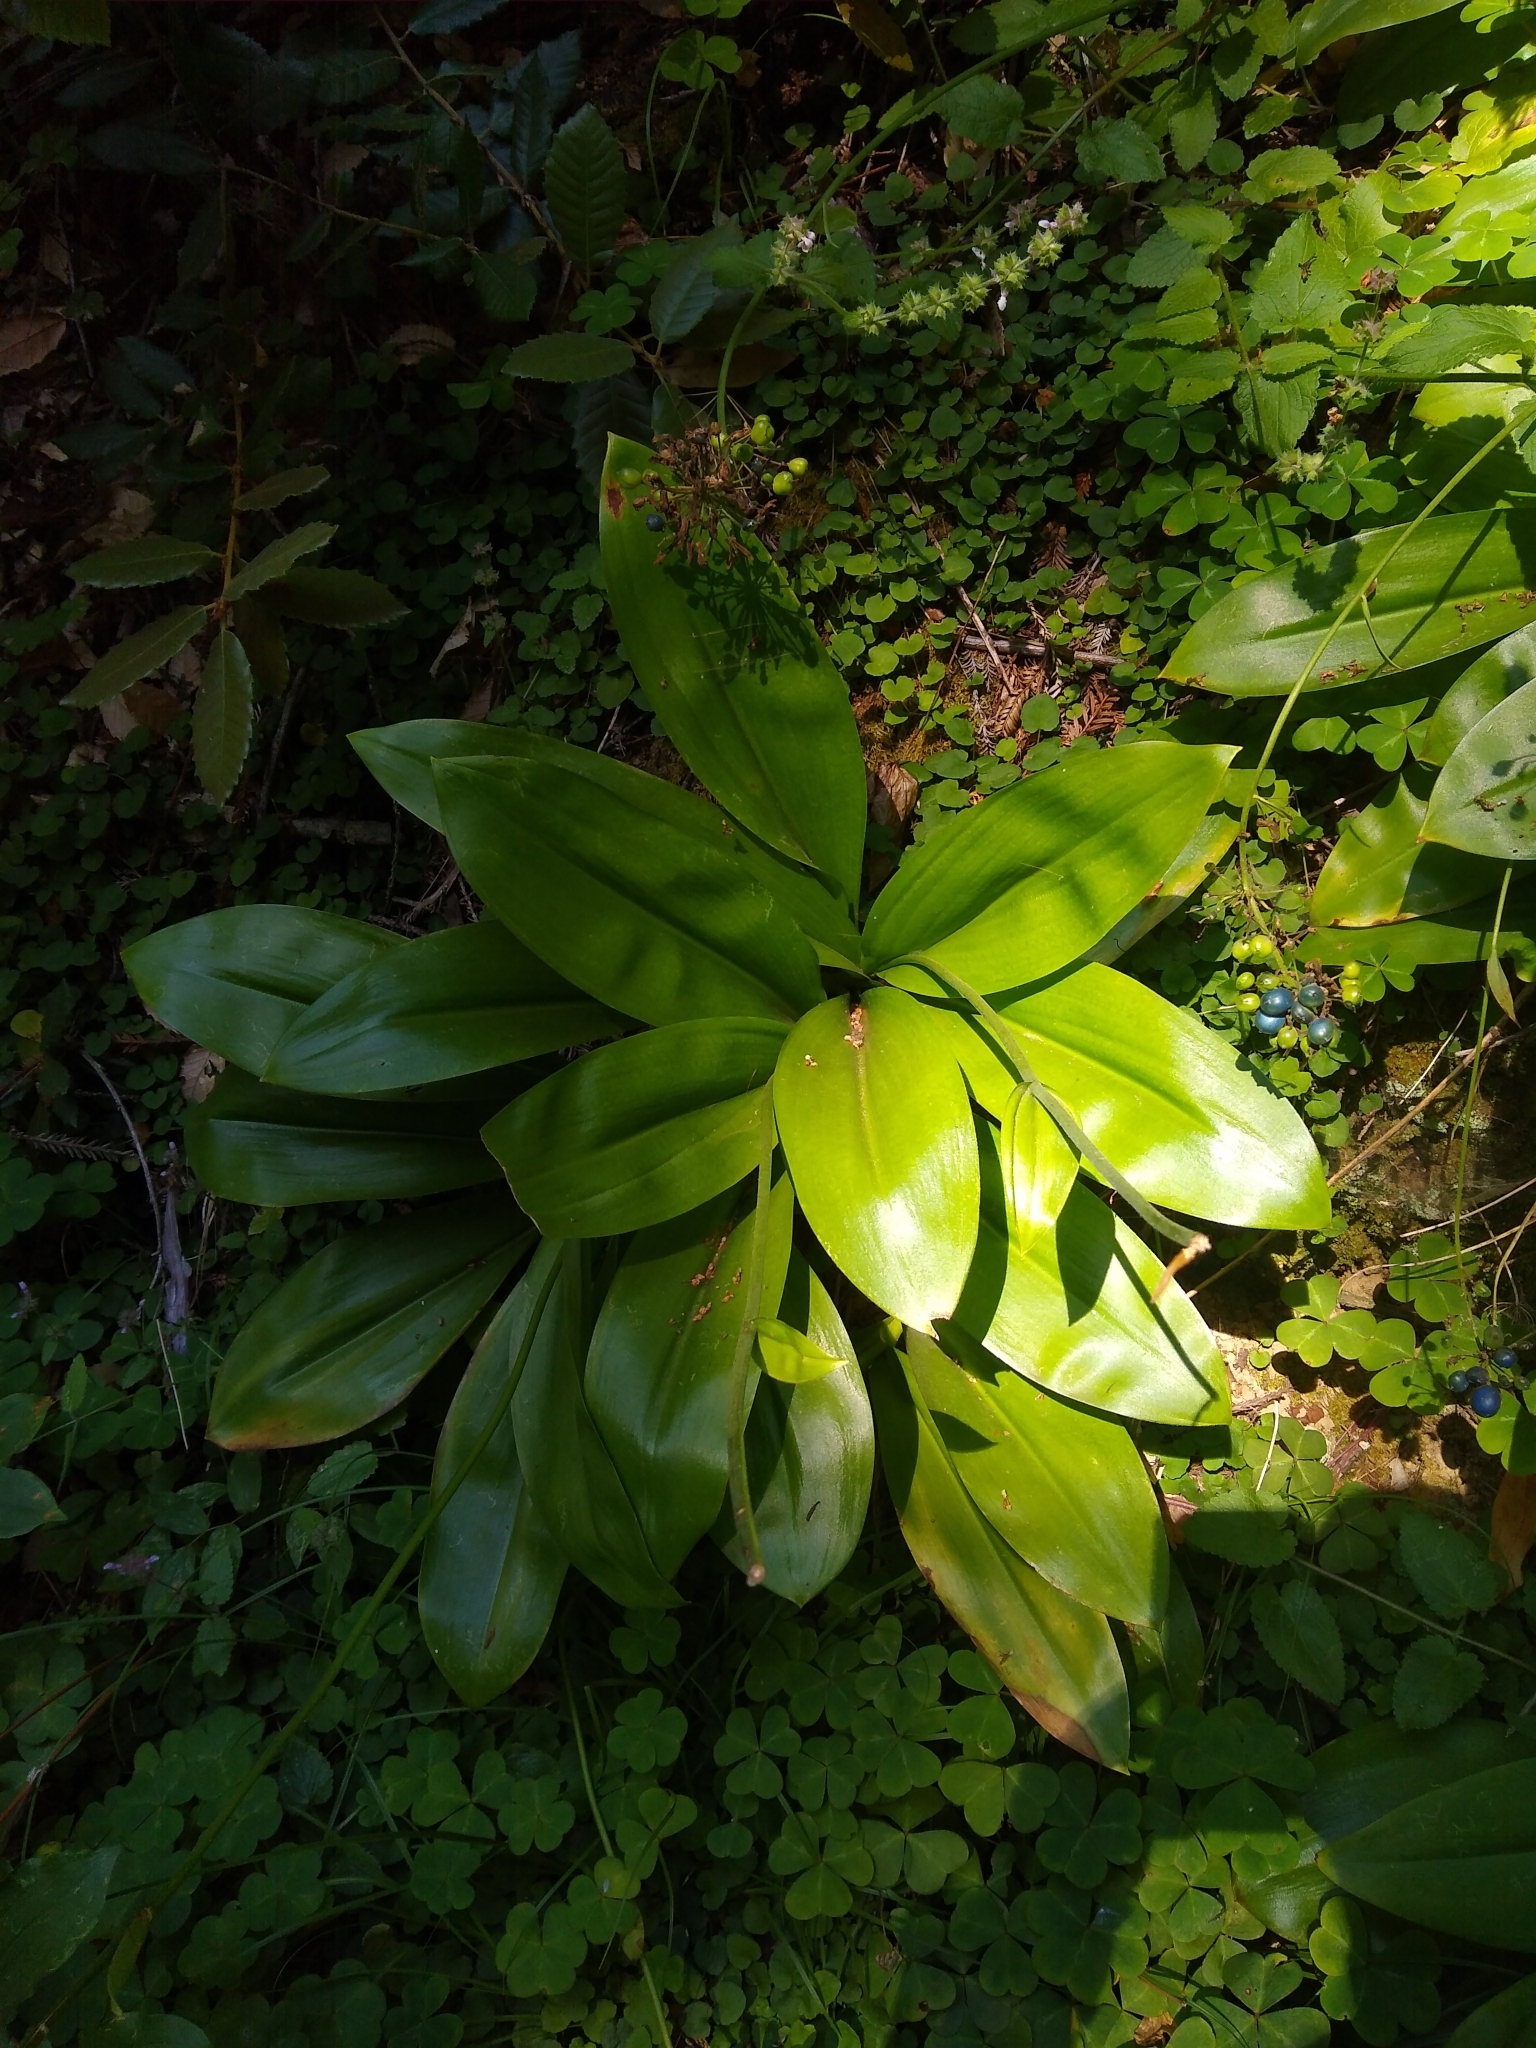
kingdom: Plantae
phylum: Tracheophyta
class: Liliopsida
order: Liliales
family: Liliaceae
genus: Clintonia
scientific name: Clintonia andrewsiana
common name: Red clintonia
